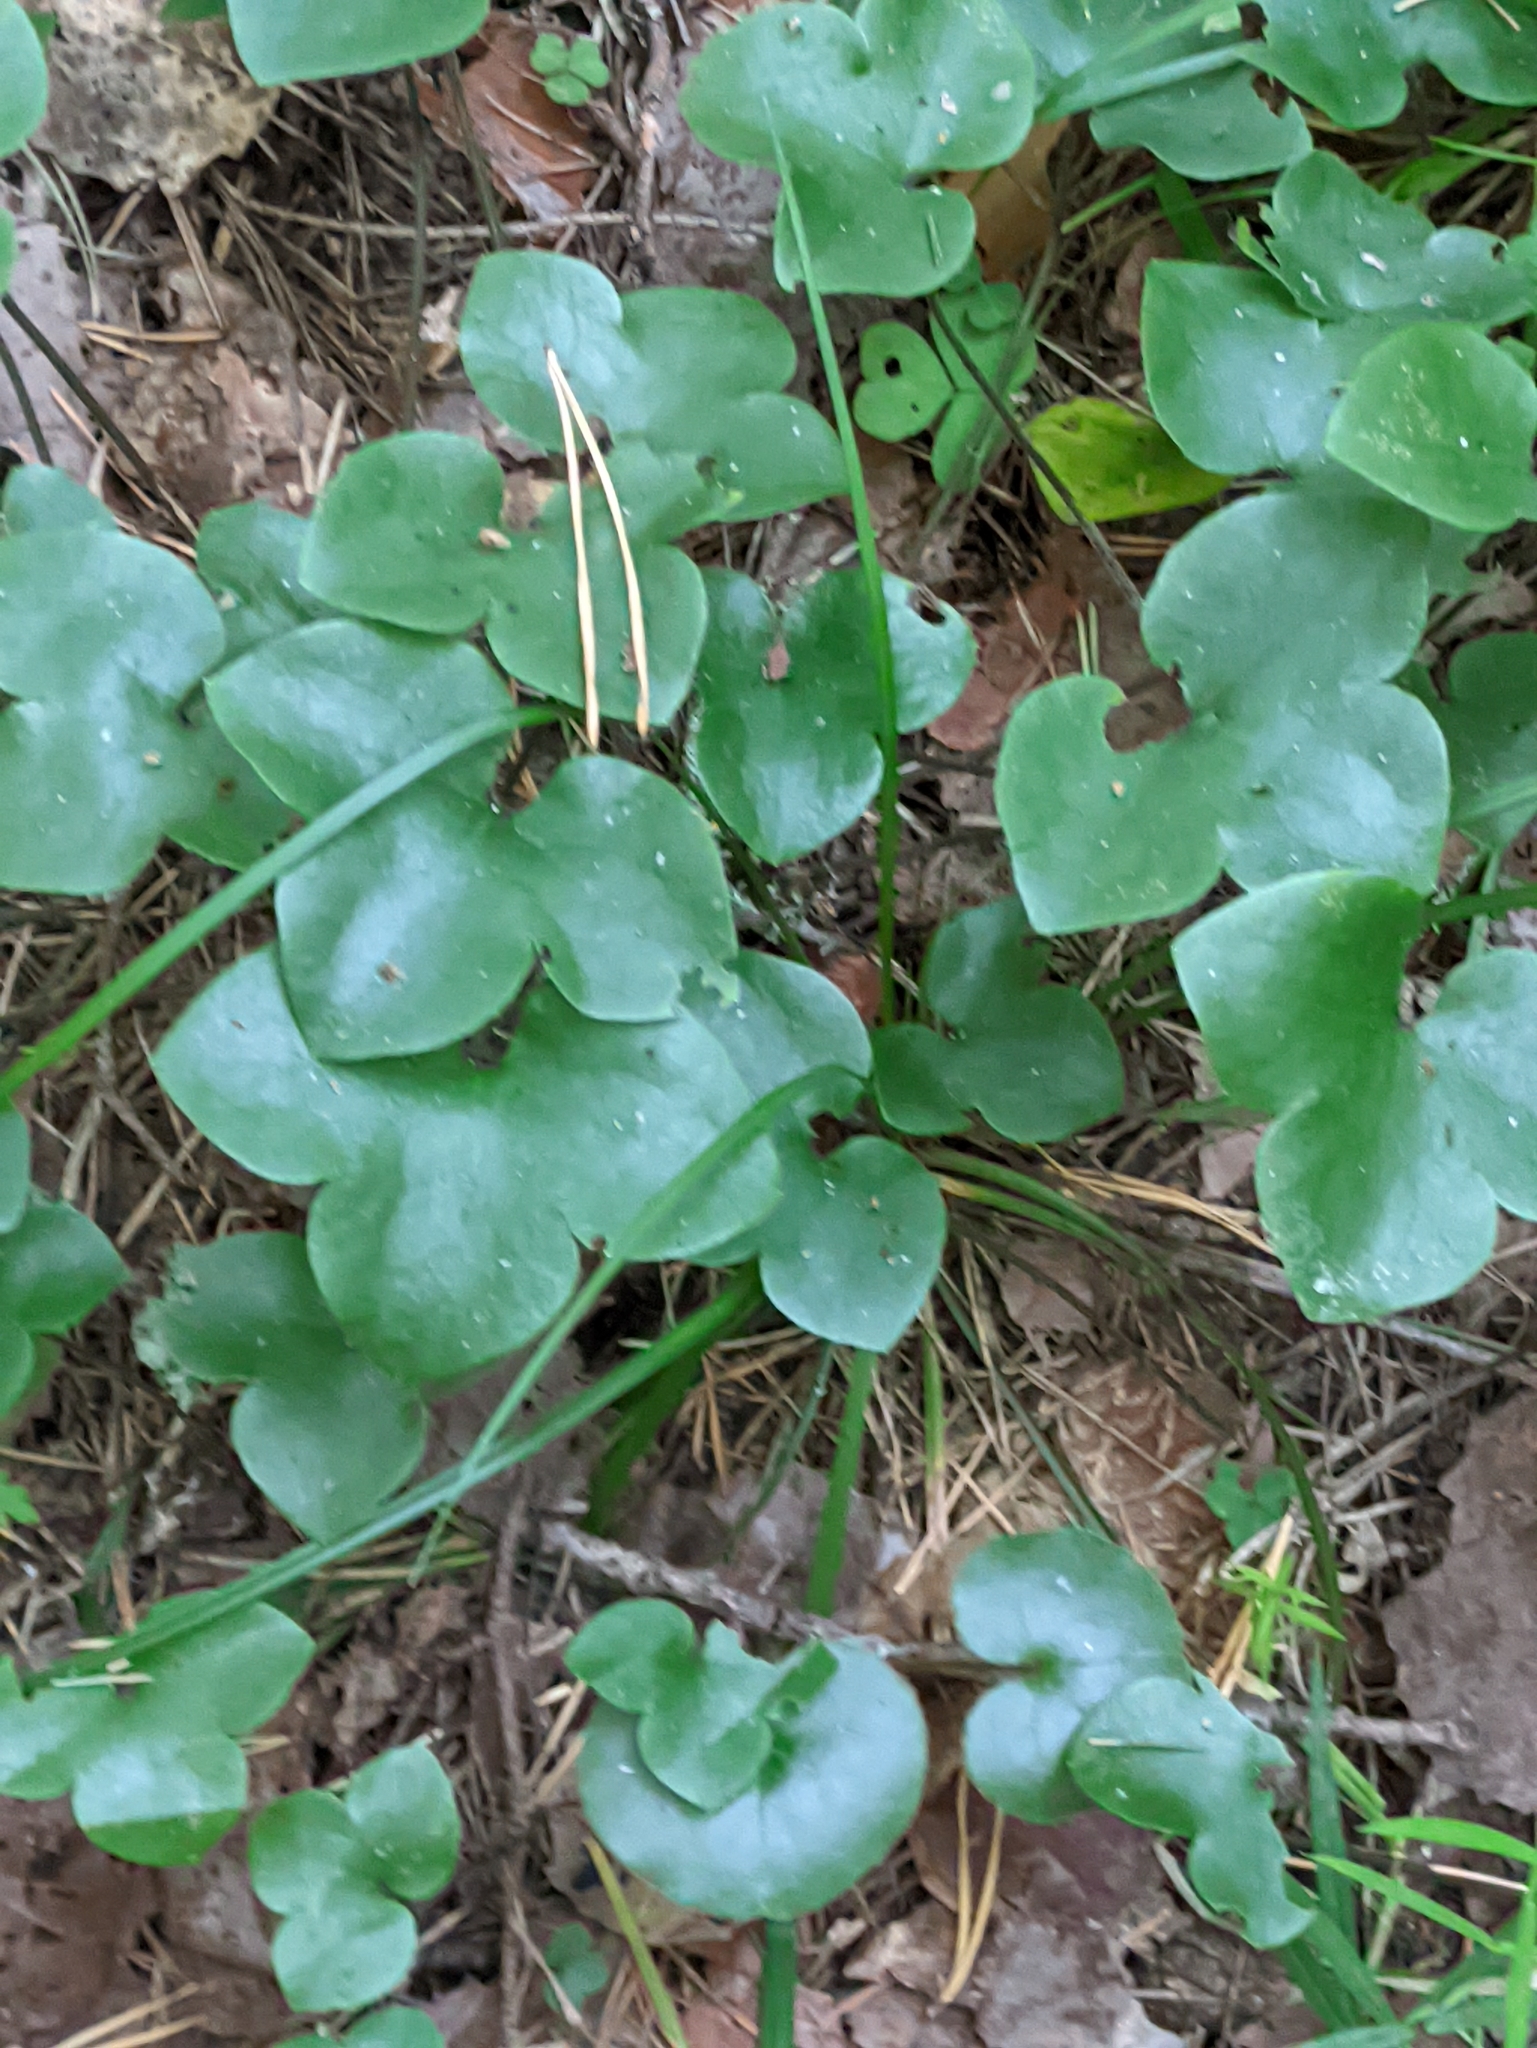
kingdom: Plantae
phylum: Tracheophyta
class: Magnoliopsida
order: Ranunculales
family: Ranunculaceae
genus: Hepatica
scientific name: Hepatica nobilis
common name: Liverleaf
